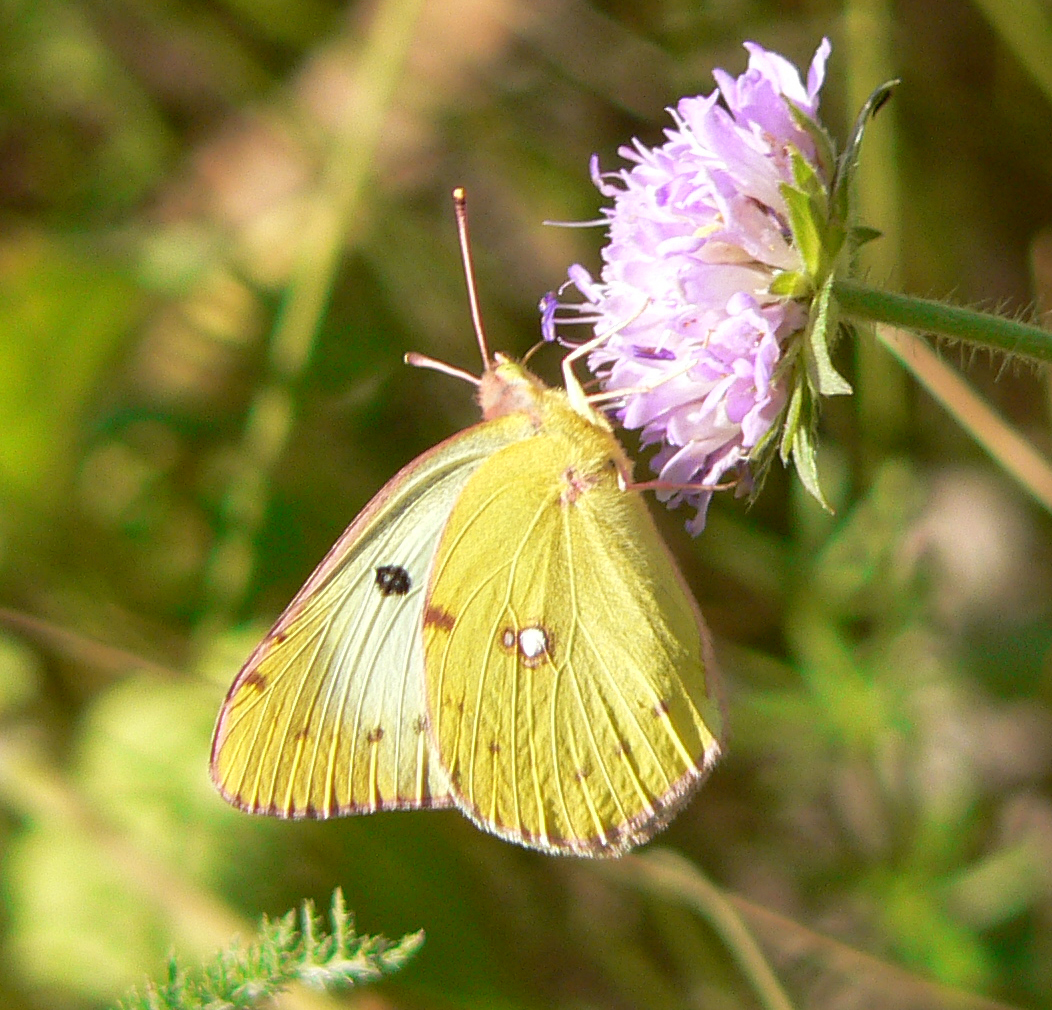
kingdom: Animalia
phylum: Arthropoda
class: Insecta
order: Lepidoptera
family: Pieridae
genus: Colias
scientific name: Colias hyale
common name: Pale clouded yellow
